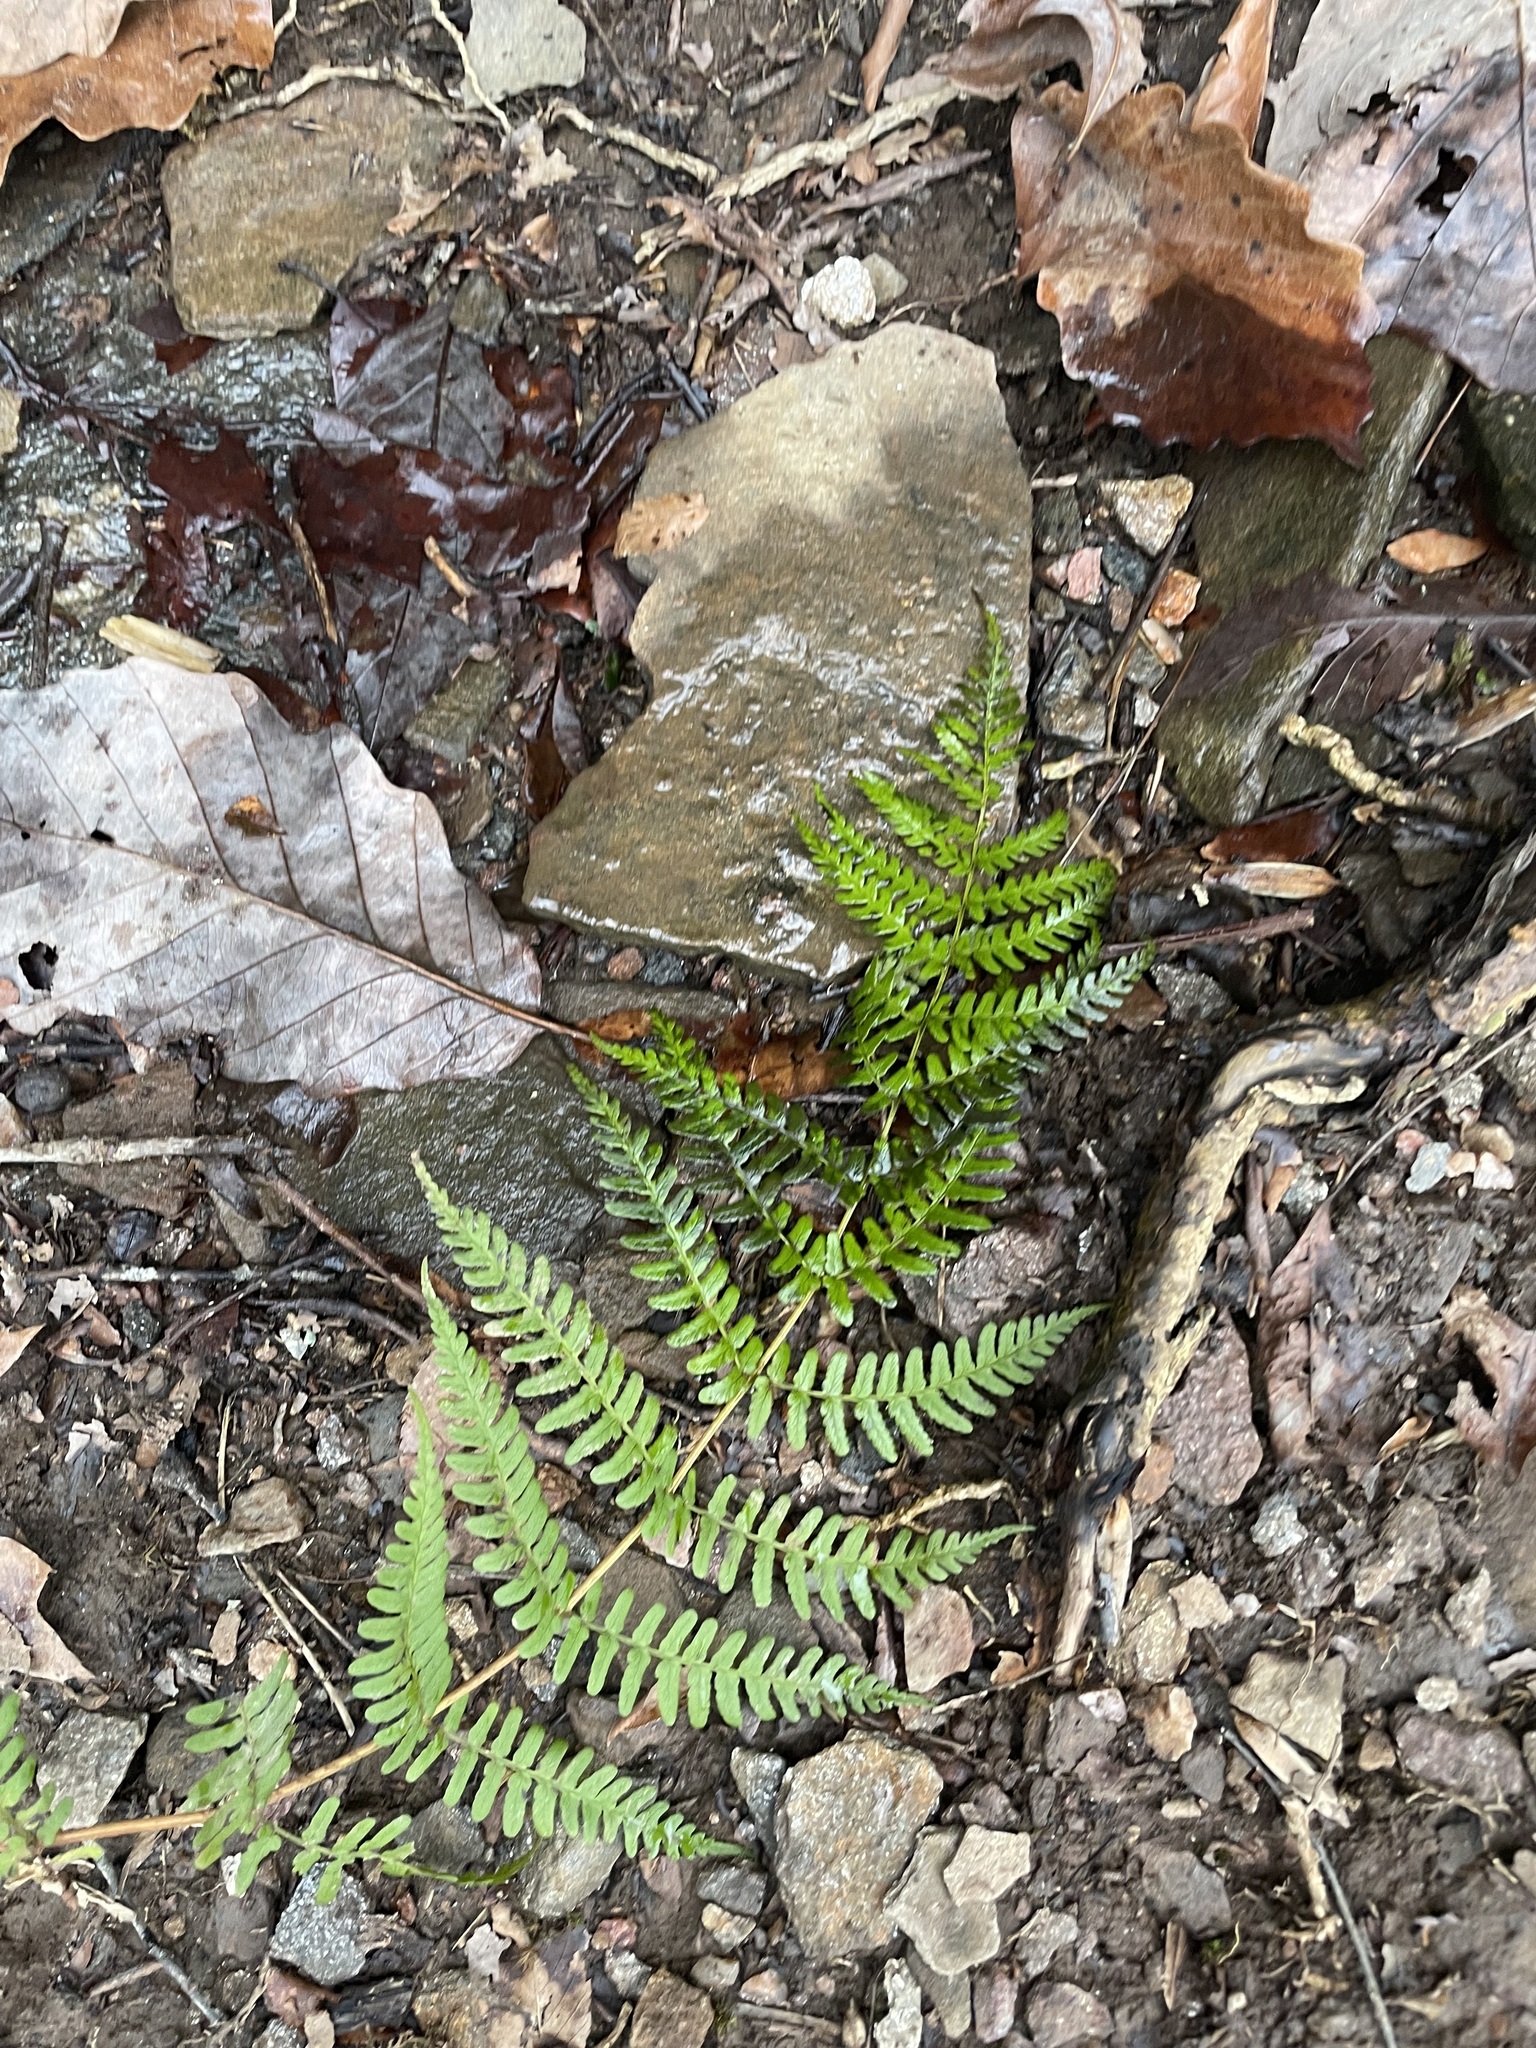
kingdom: Plantae
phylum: Tracheophyta
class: Polypodiopsida
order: Polypodiales
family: Dryopteridaceae
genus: Dryopteris
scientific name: Dryopteris marginalis
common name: Marginal wood fern
